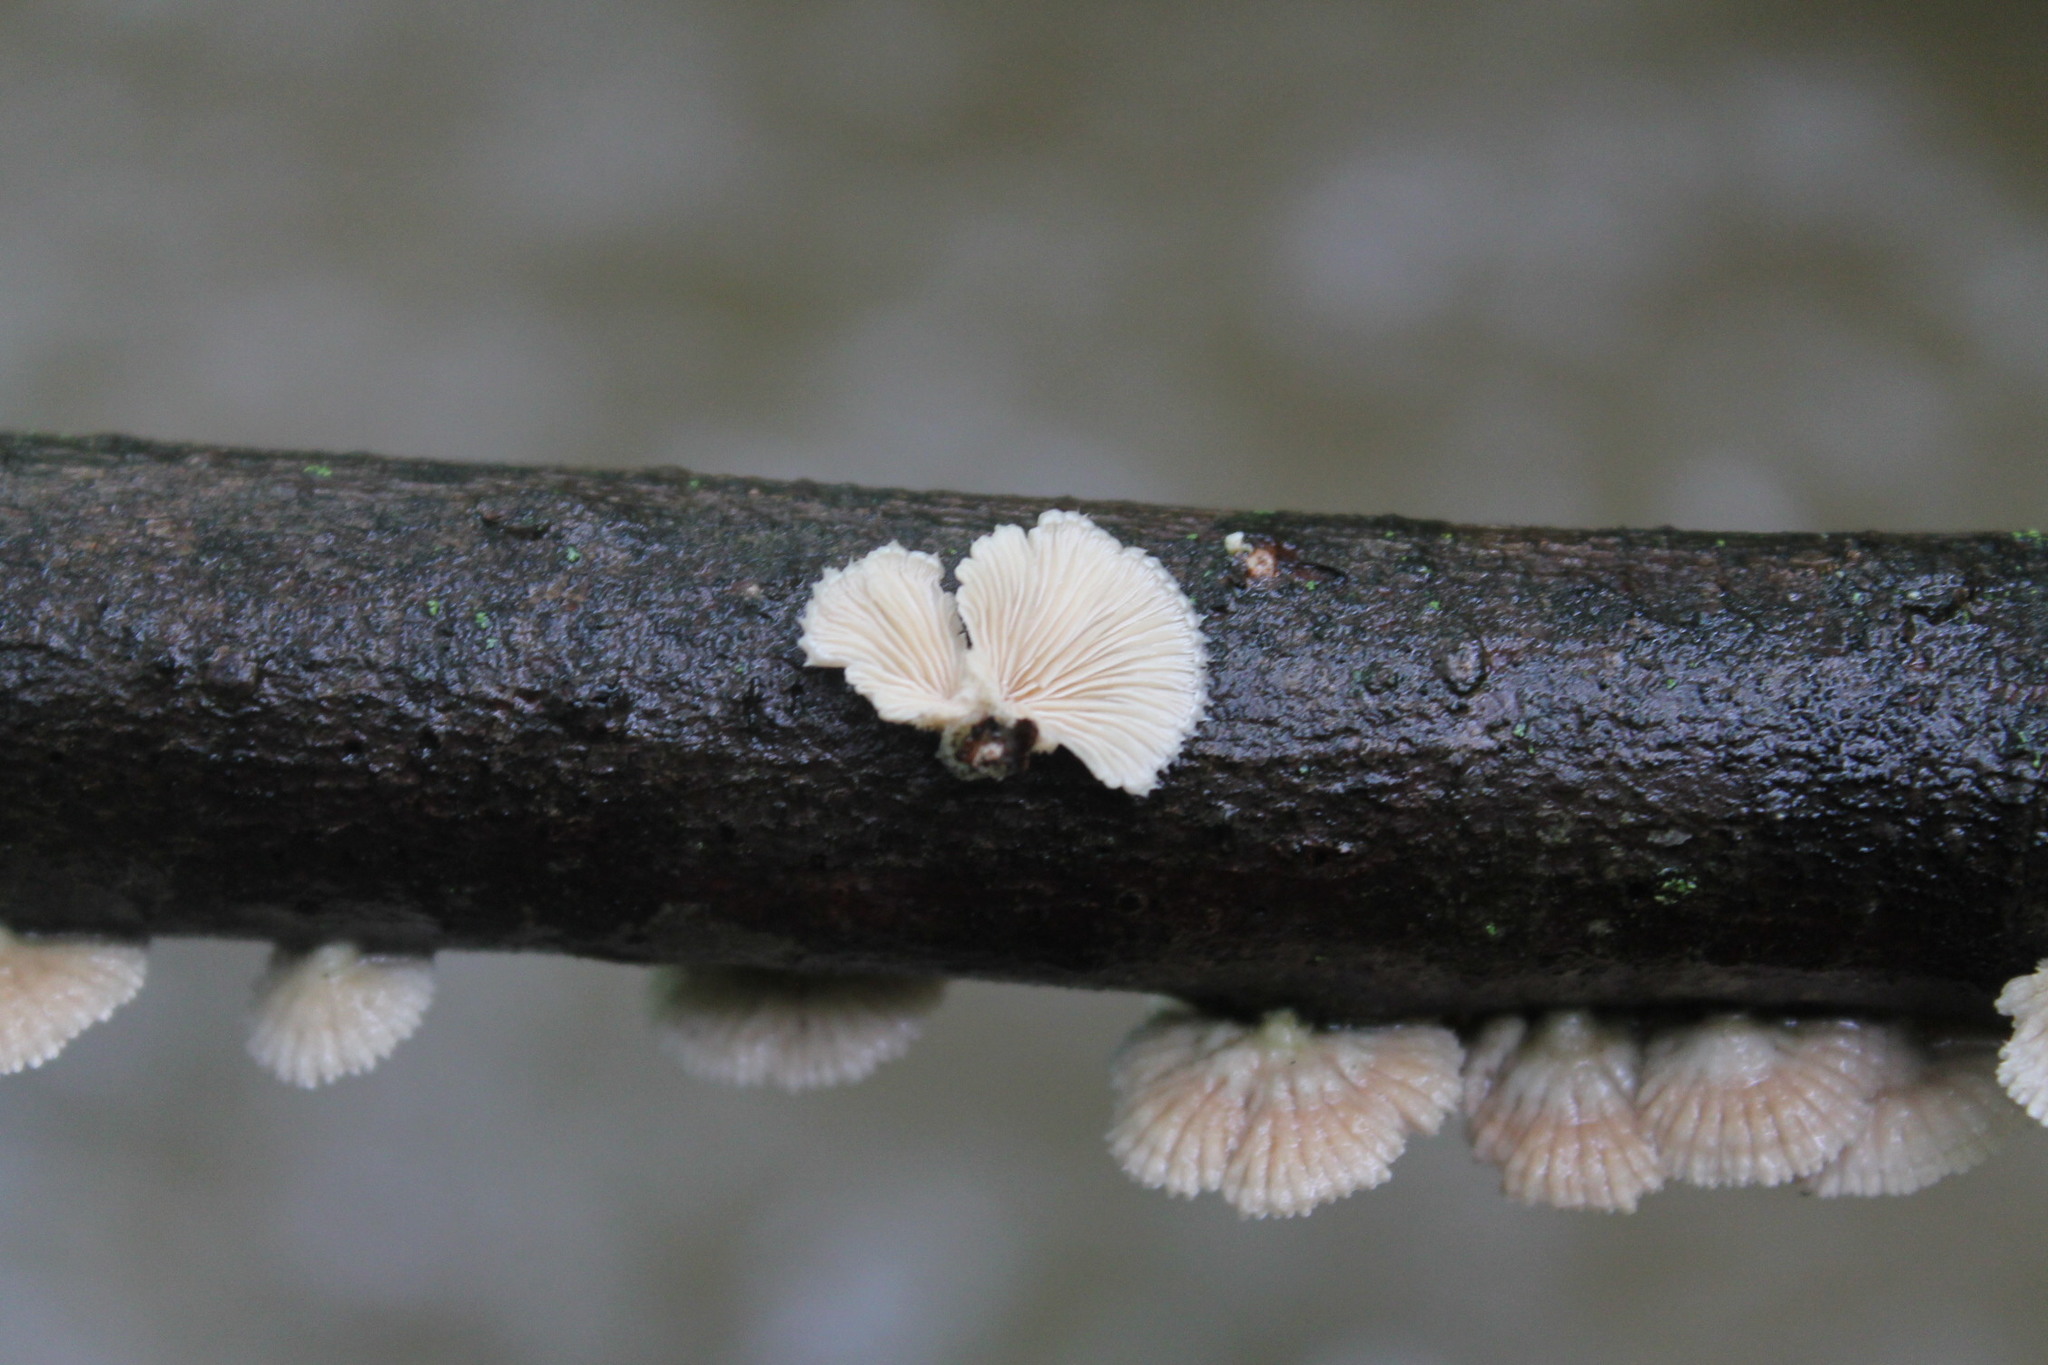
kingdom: Fungi
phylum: Basidiomycota
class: Agaricomycetes
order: Agaricales
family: Schizophyllaceae
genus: Schizophyllum
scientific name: Schizophyllum commune
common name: Common porecrust
